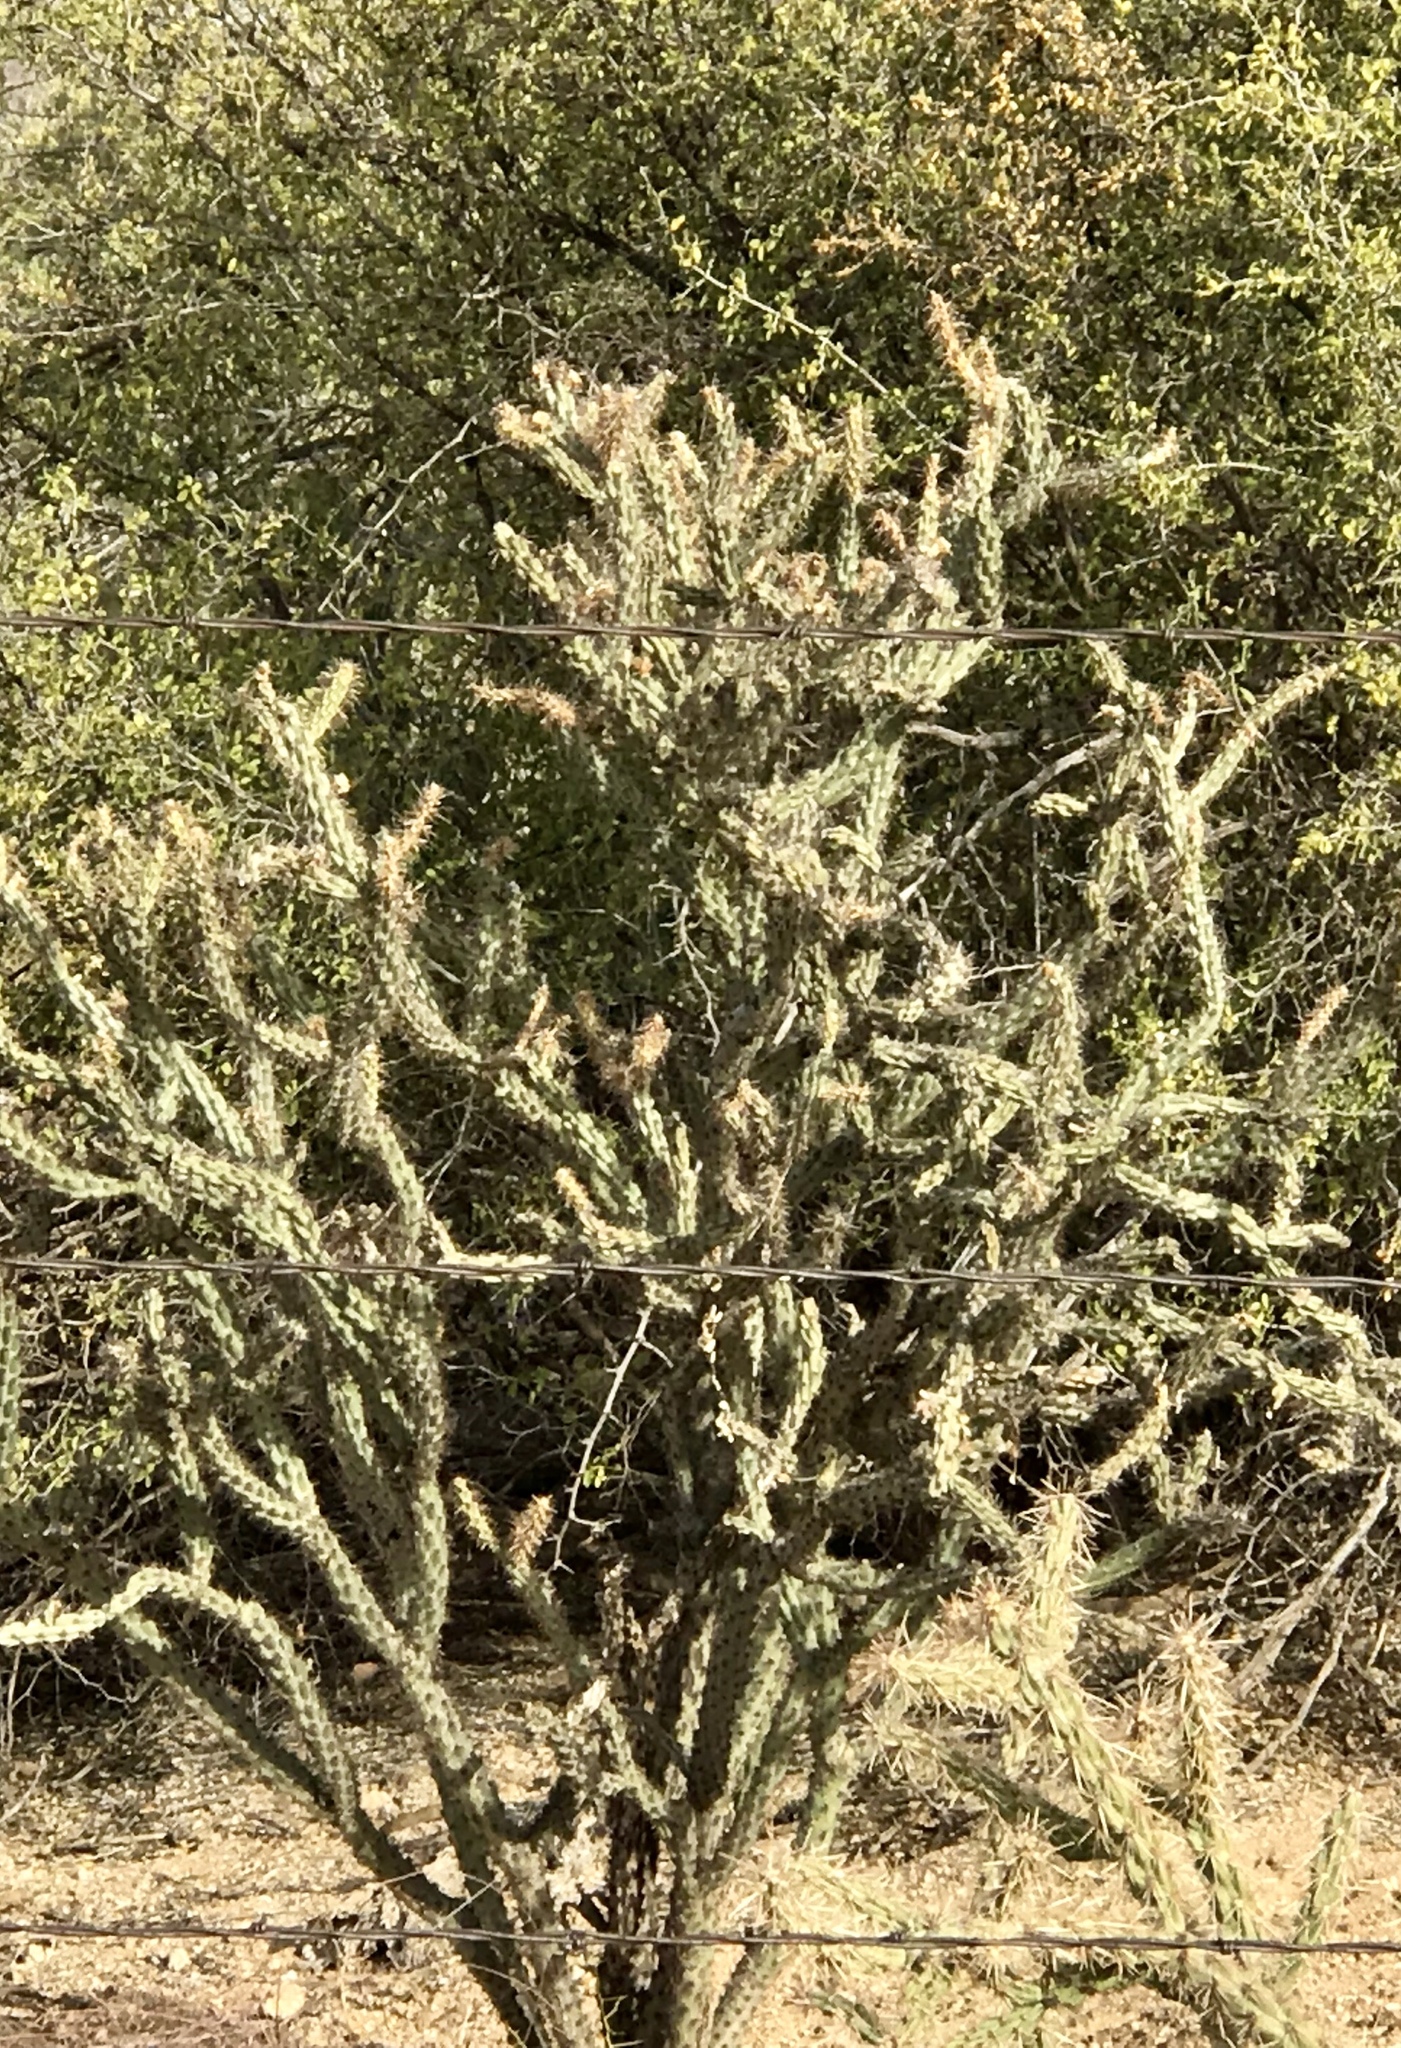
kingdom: Plantae
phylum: Tracheophyta
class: Magnoliopsida
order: Caryophyllales
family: Cactaceae
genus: Cylindropuntia
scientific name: Cylindropuntia acanthocarpa
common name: Buckhorn cholla
